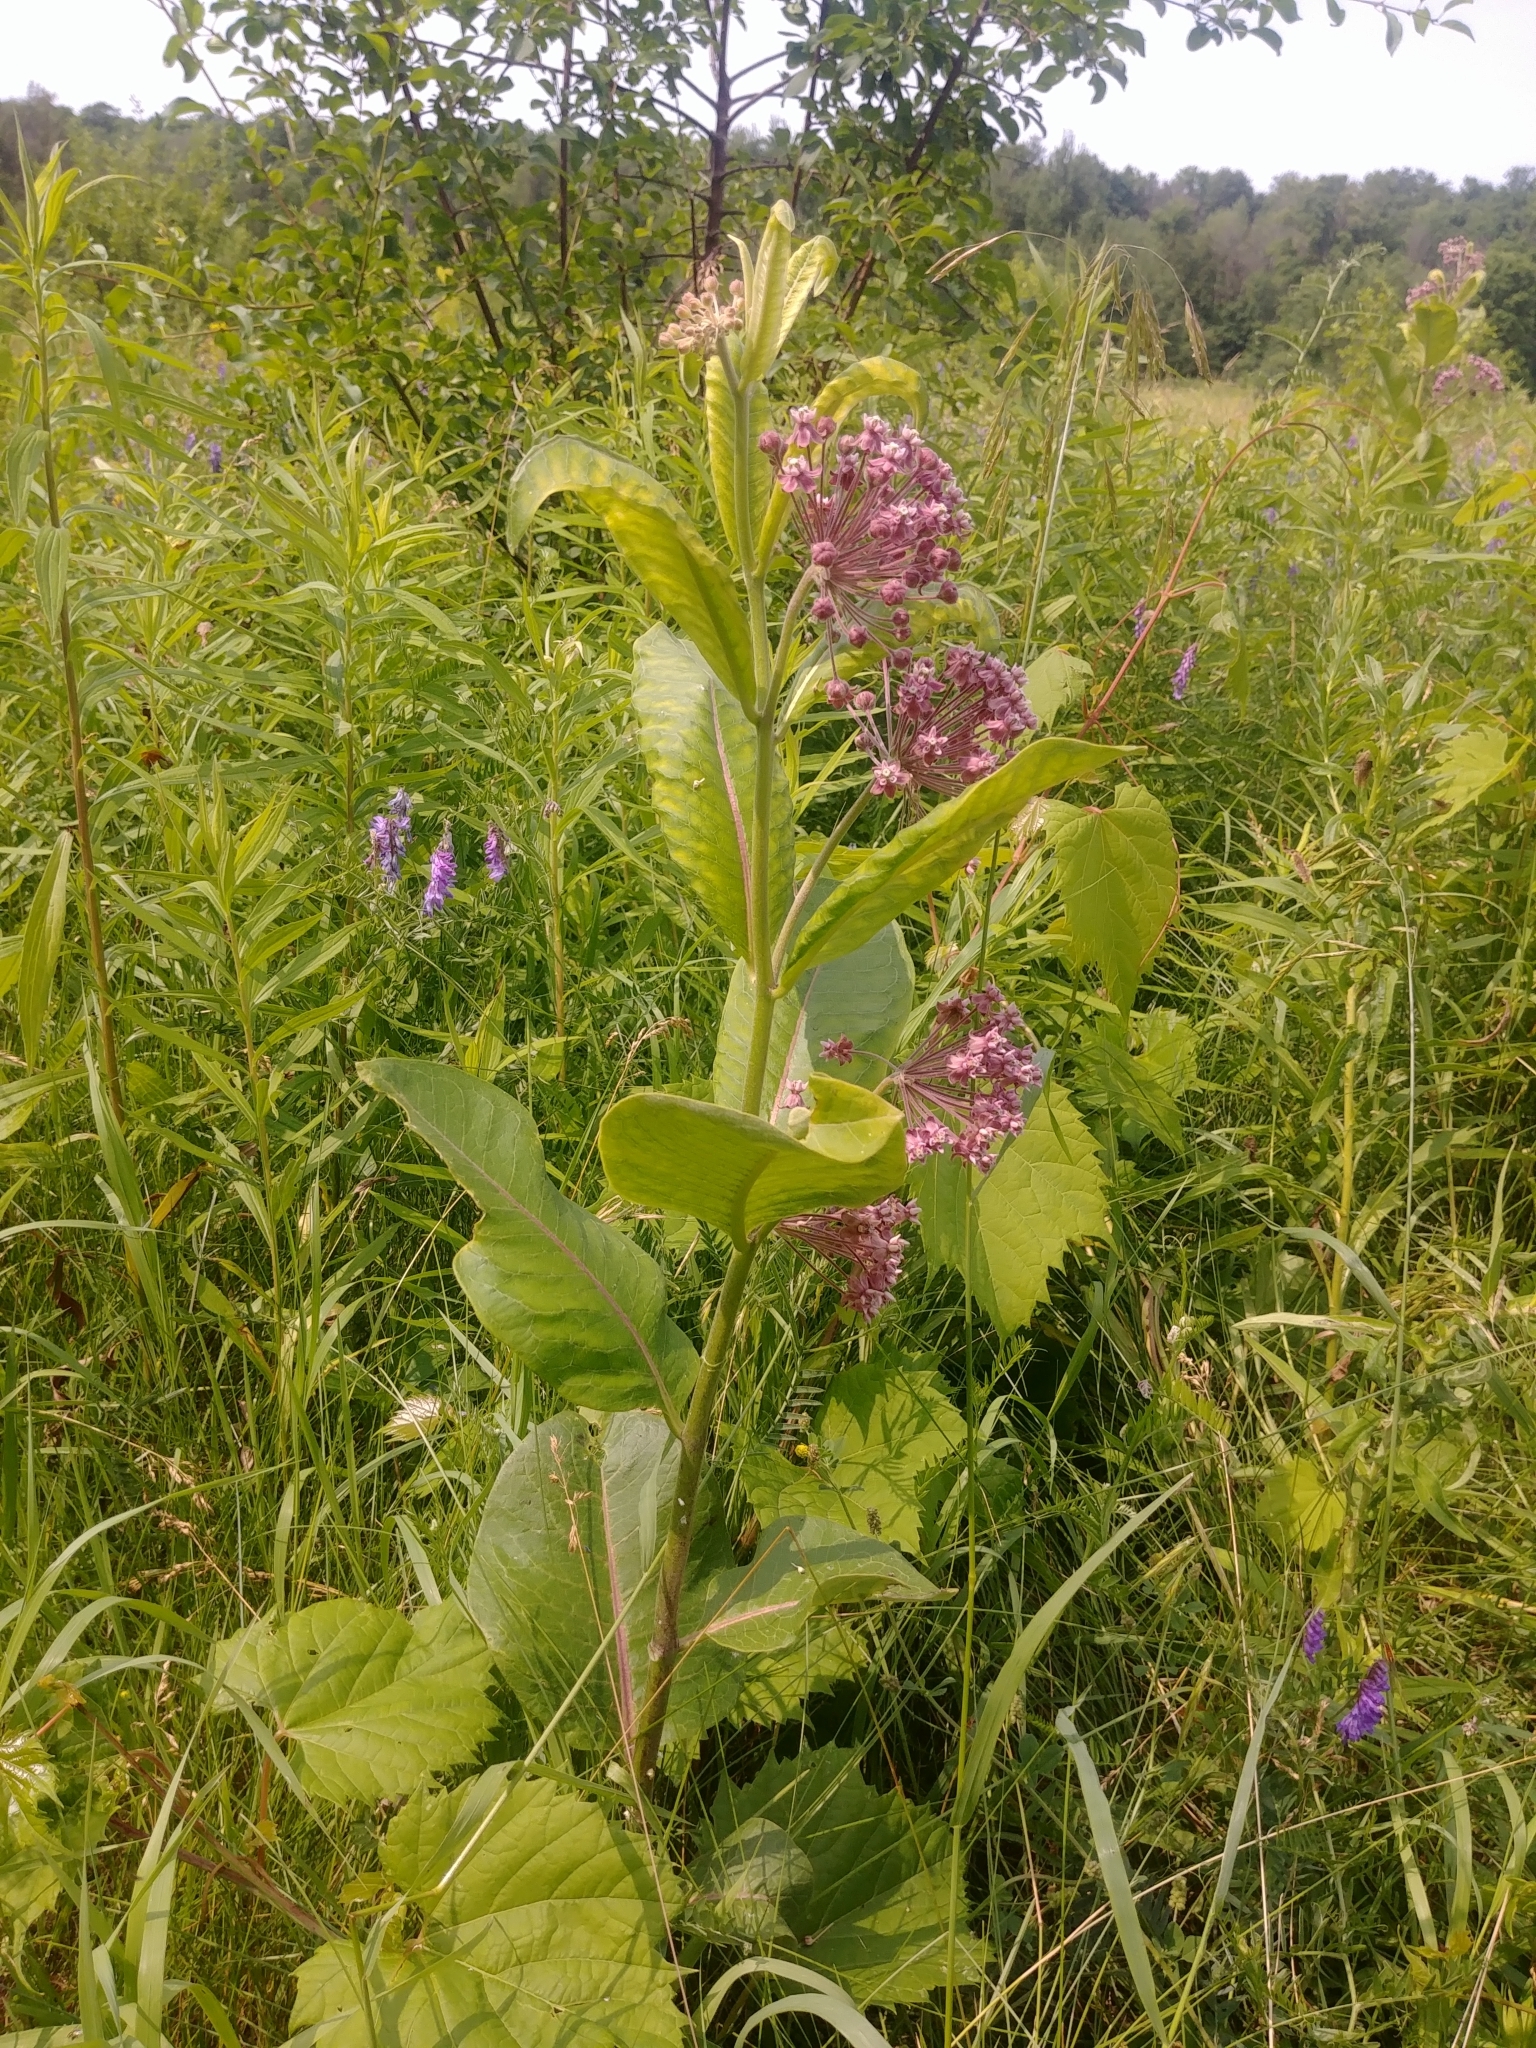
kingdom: Plantae
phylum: Tracheophyta
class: Magnoliopsida
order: Gentianales
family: Apocynaceae
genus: Asclepias
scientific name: Asclepias syriaca
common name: Common milkweed
